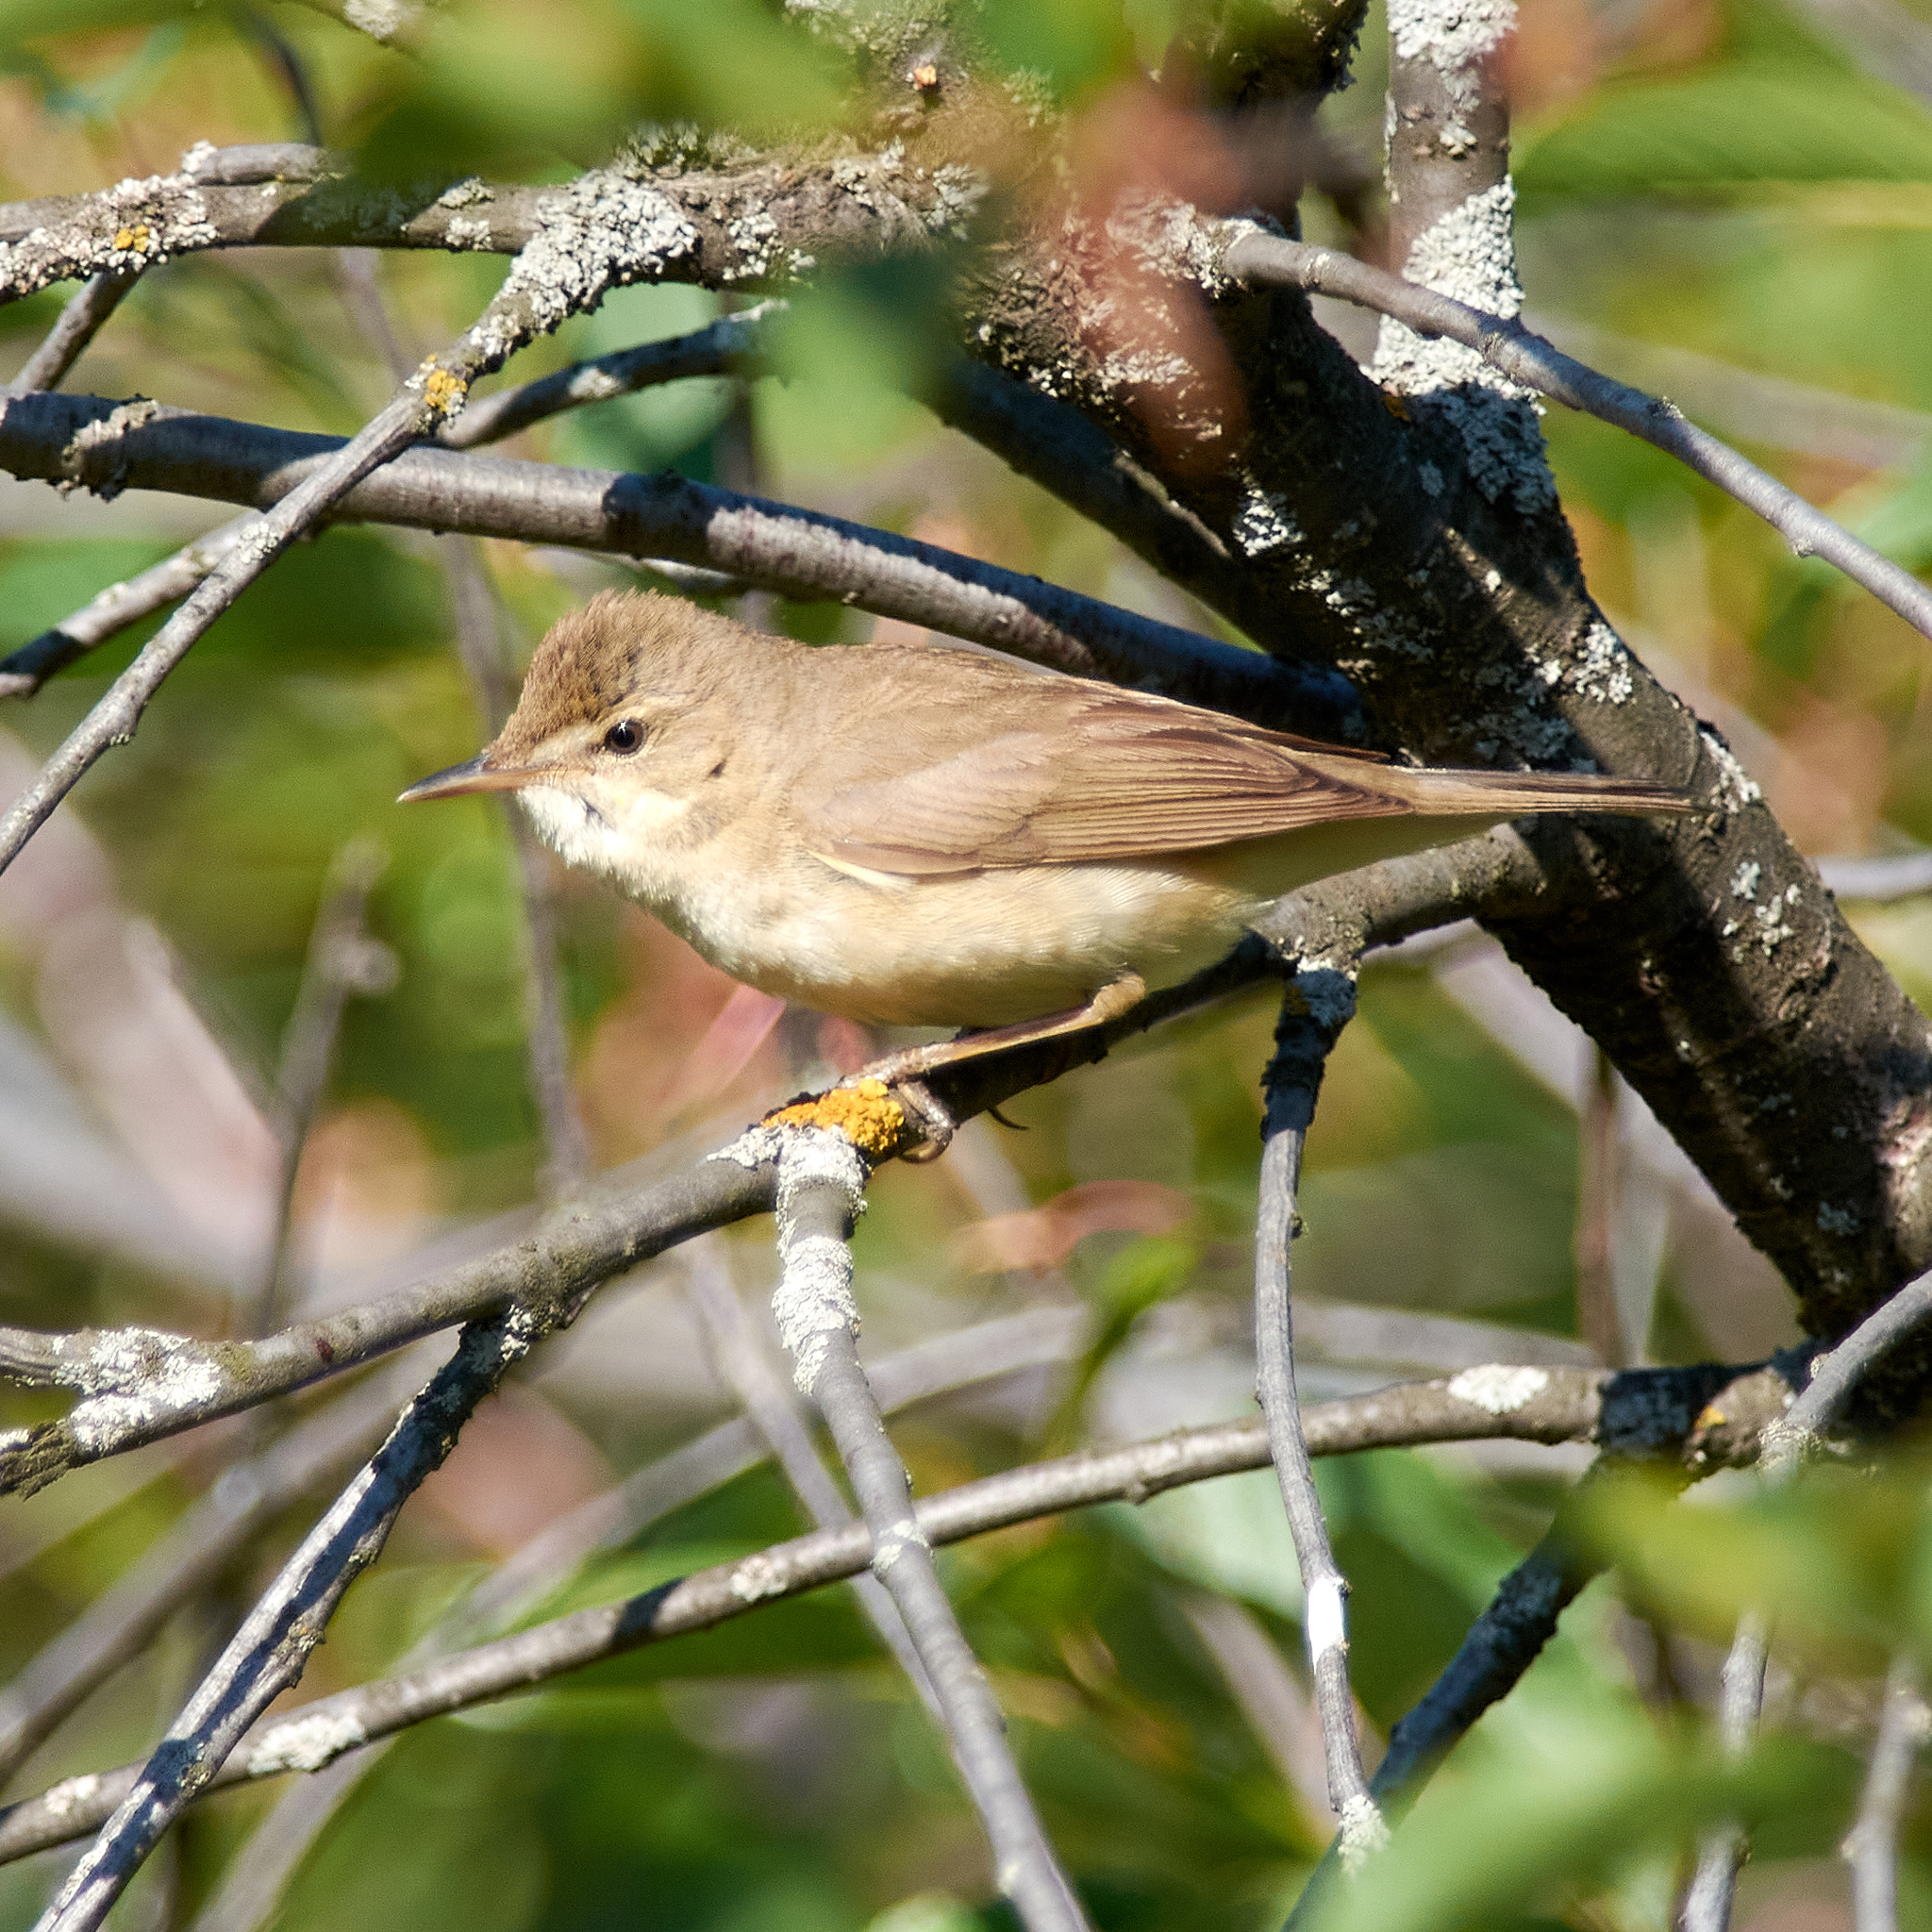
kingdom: Animalia
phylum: Chordata
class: Aves
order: Passeriformes
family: Acrocephalidae
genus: Acrocephalus
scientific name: Acrocephalus dumetorum
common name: Blyth's reed warbler
